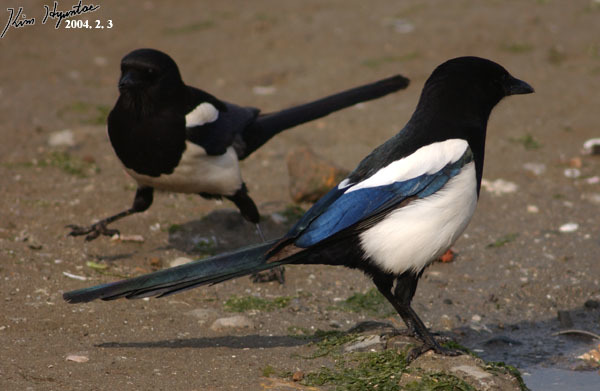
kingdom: Animalia
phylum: Chordata
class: Aves
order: Passeriformes
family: Corvidae
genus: Pica
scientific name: Pica serica
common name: Oriental magpie
